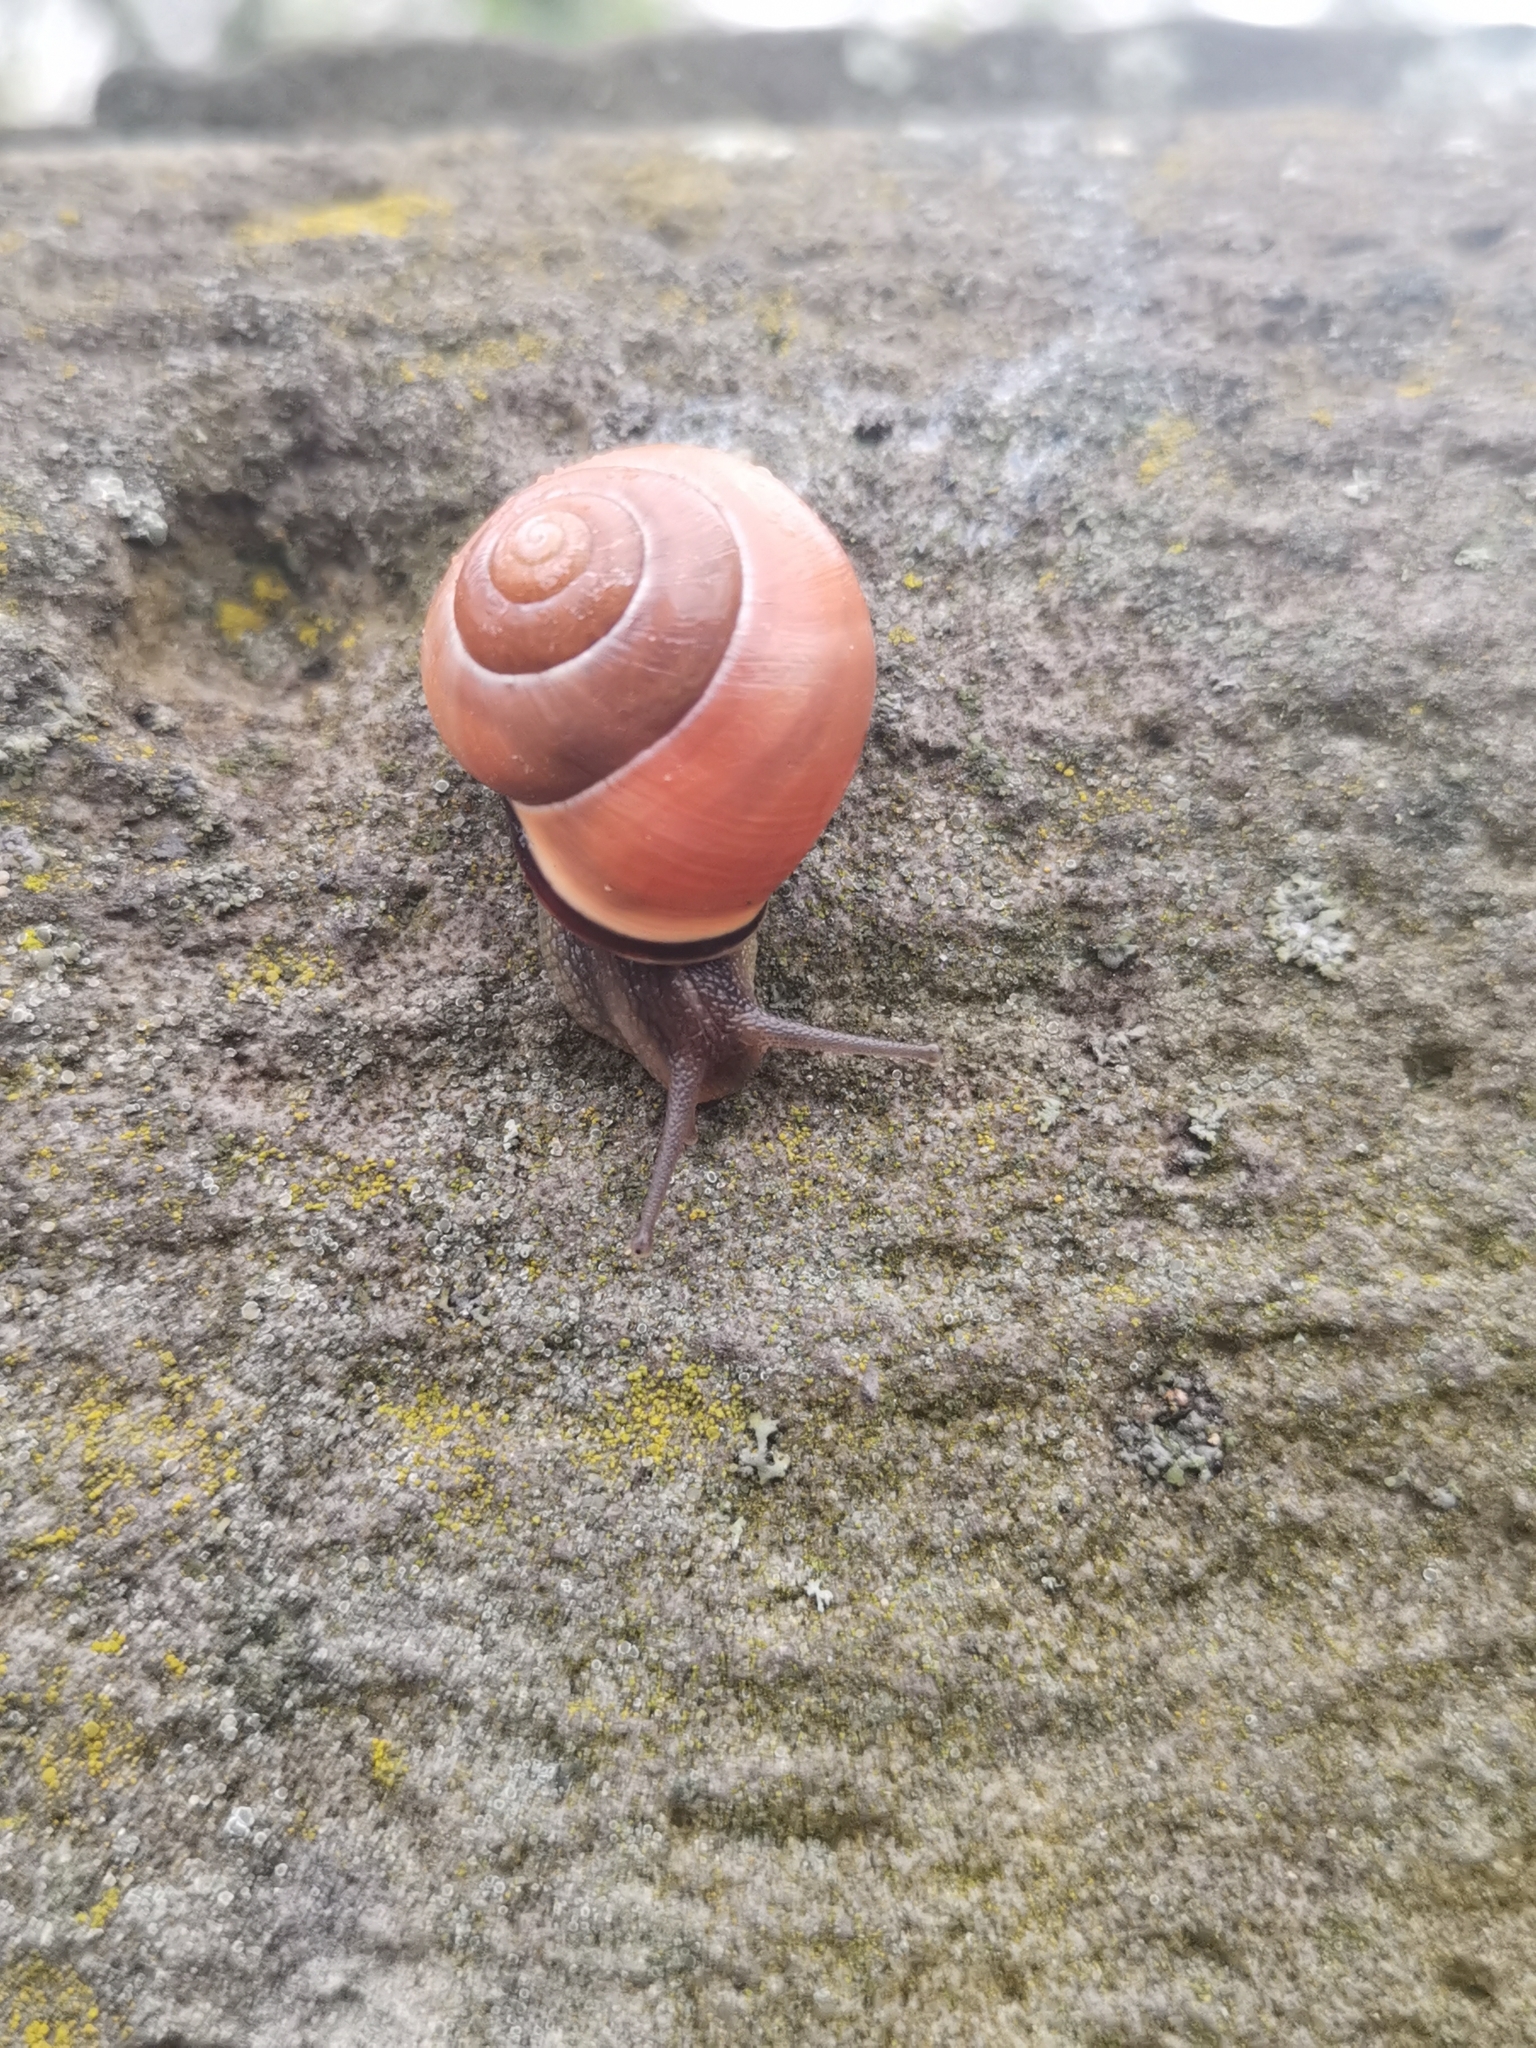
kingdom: Animalia
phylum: Mollusca
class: Gastropoda
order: Stylommatophora
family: Helicidae
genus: Cepaea
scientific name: Cepaea nemoralis
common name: Grovesnail
